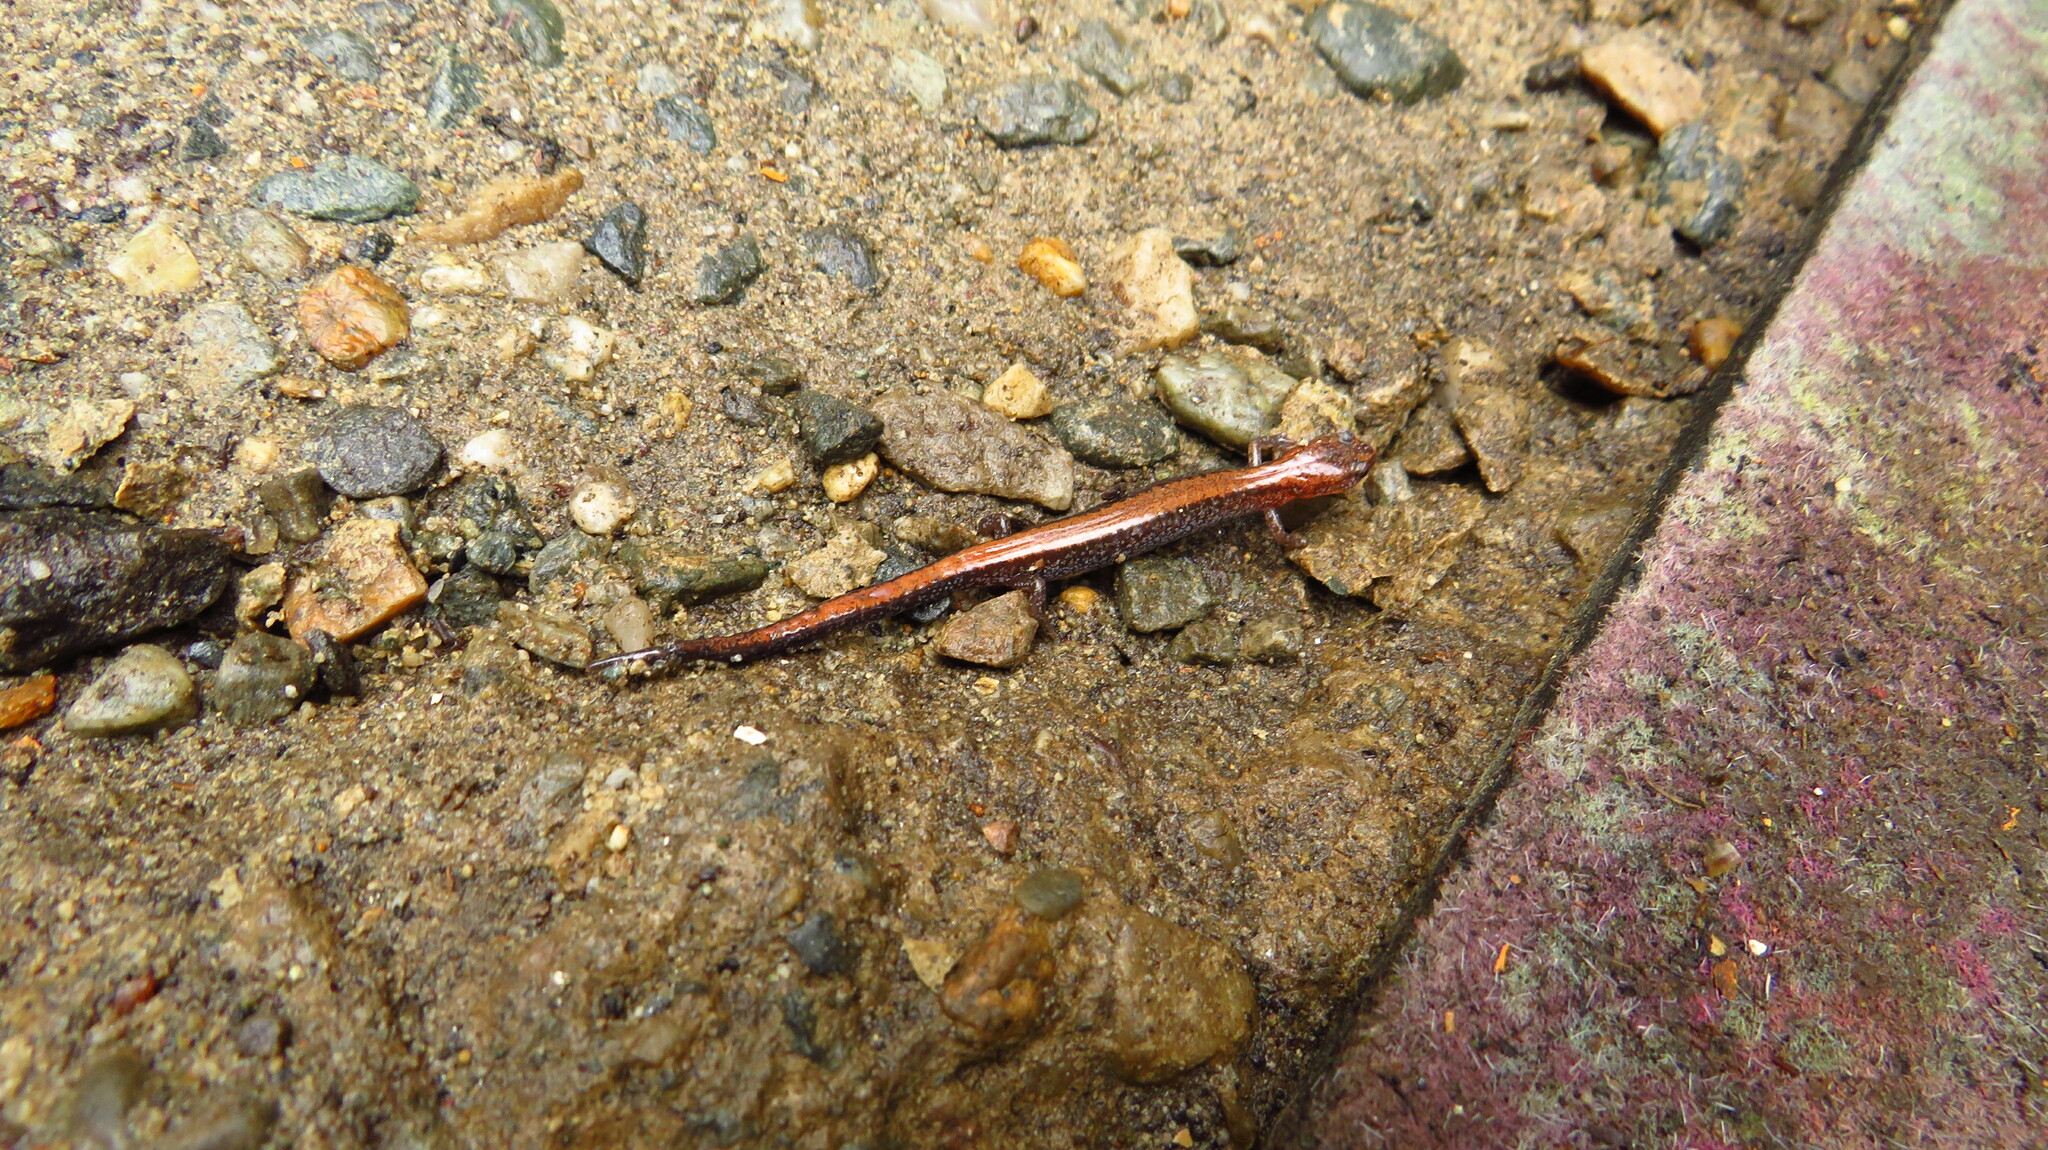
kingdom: Animalia
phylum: Chordata
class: Amphibia
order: Caudata
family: Plethodontidae
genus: Plethodon
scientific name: Plethodon cinereus
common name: Redback salamander
